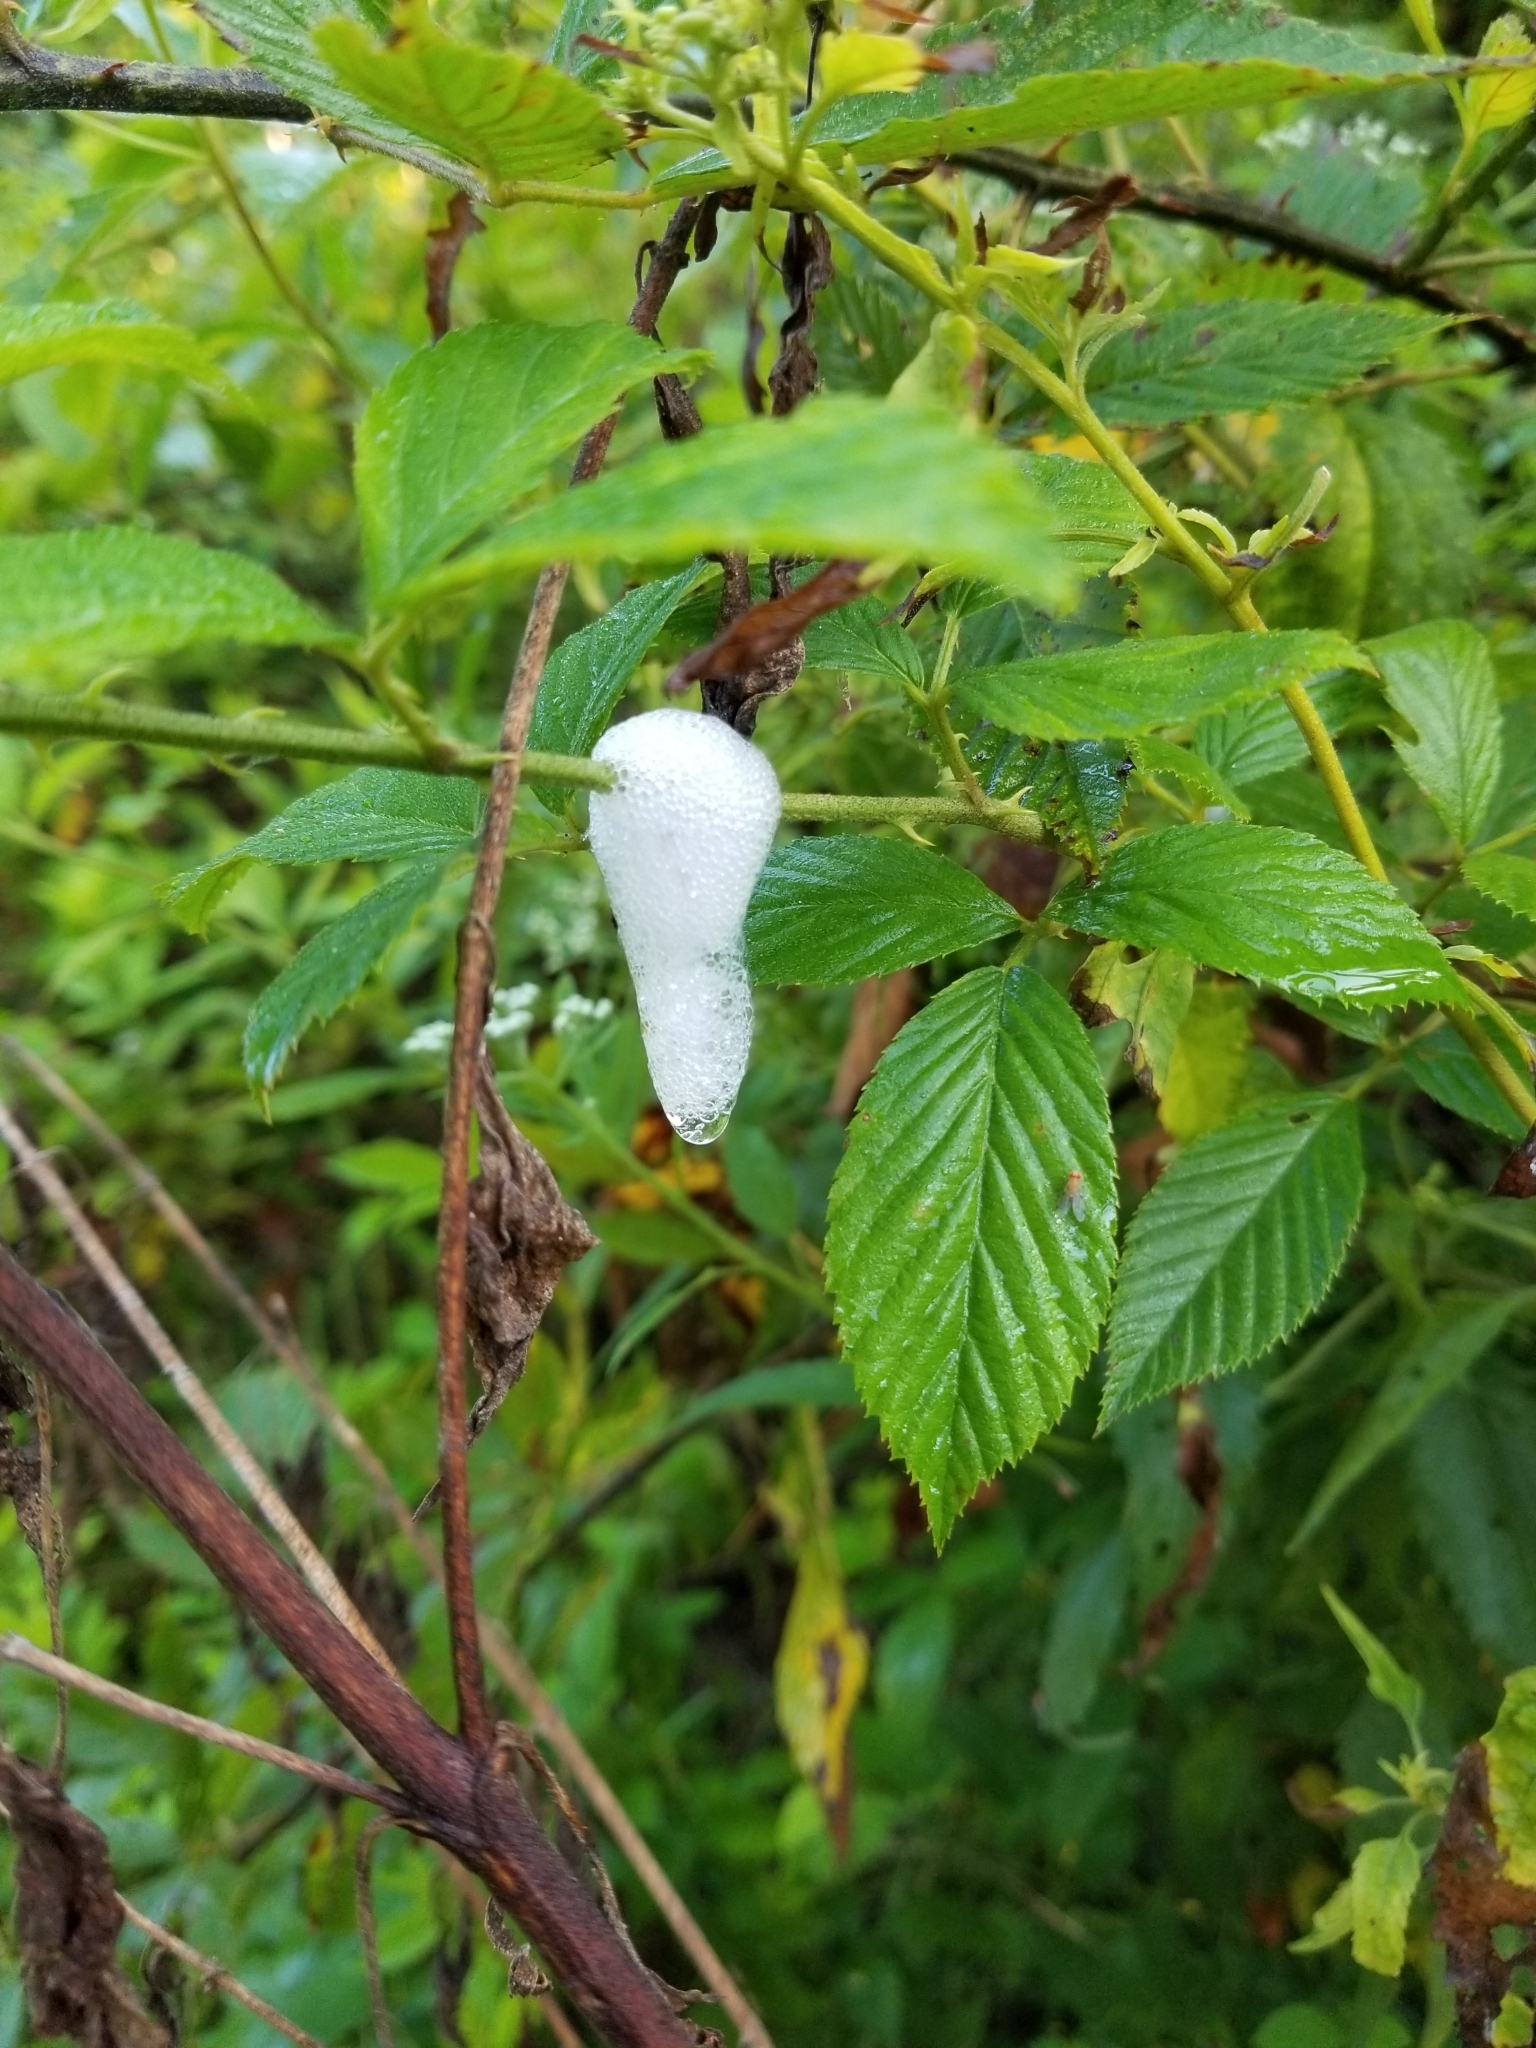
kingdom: Animalia
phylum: Arthropoda
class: Insecta
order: Hemiptera
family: Aphrophoridae
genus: Philaenus
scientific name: Philaenus spumarius
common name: Meadow spittlebug
